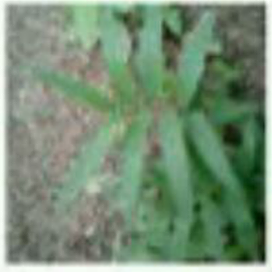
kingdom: Plantae
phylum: Tracheophyta
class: Liliopsida
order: Asparagales
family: Asparagaceae
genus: Maianthemum
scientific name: Maianthemum stellatum
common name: Little false solomon's seal
